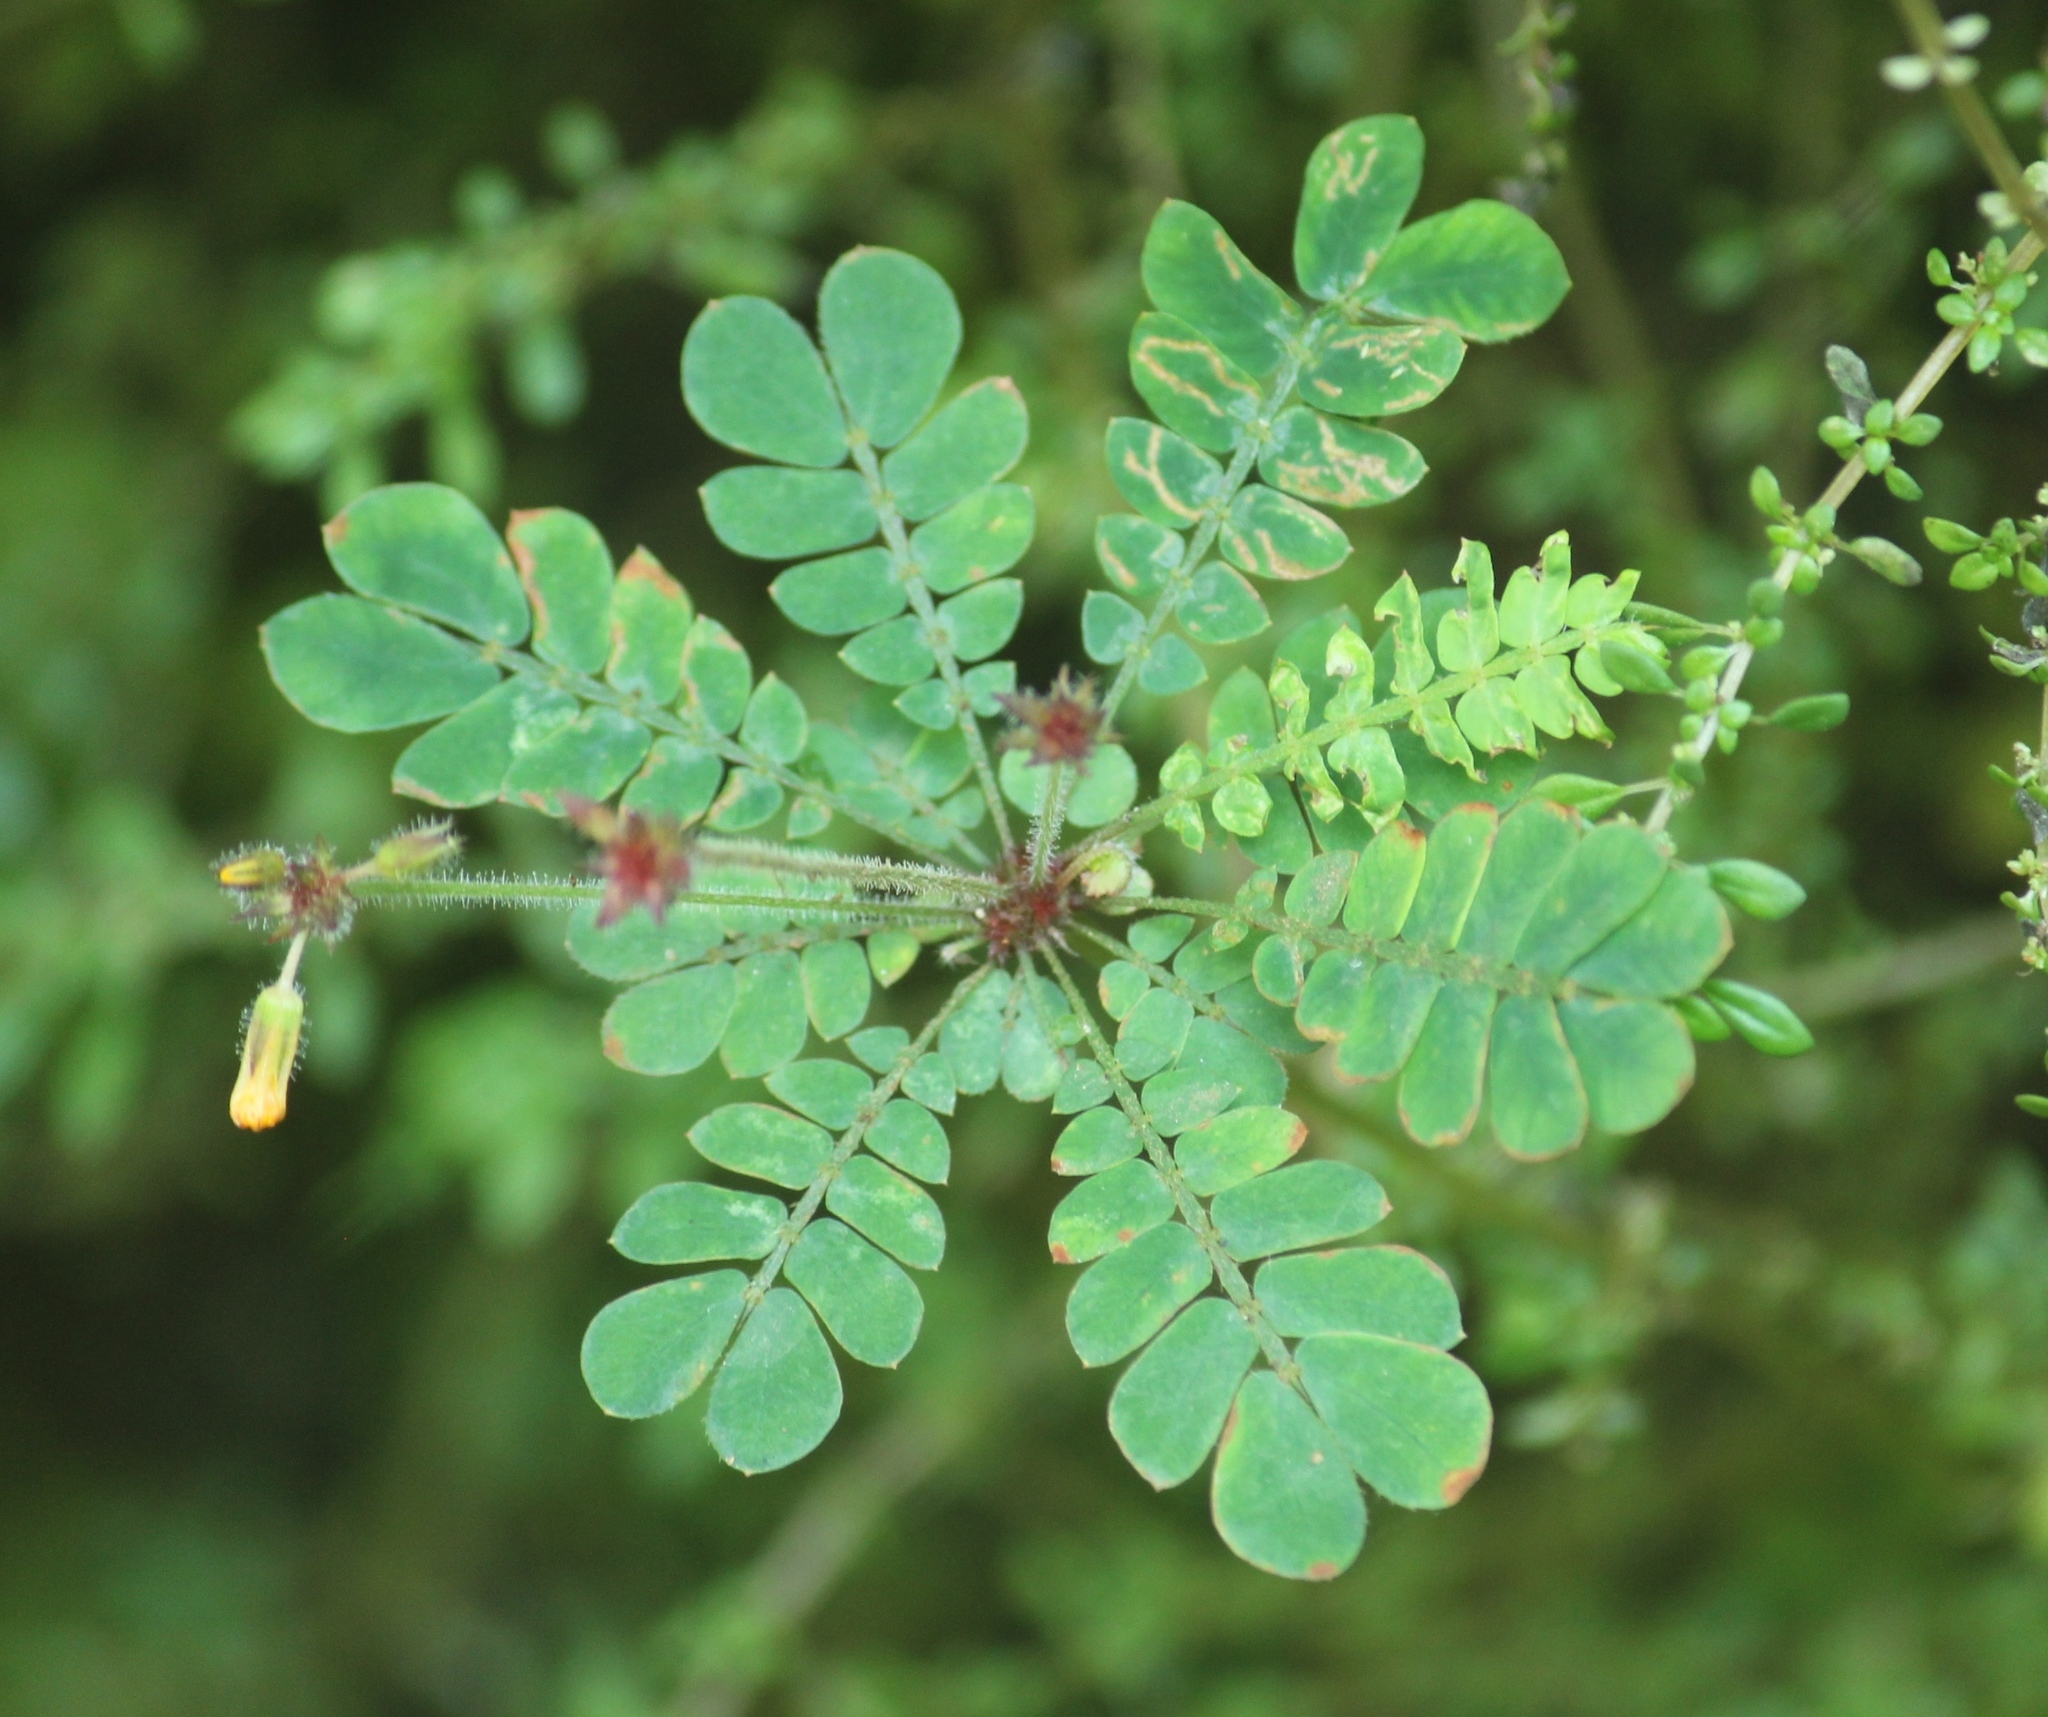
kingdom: Plantae
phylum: Tracheophyta
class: Magnoliopsida
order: Oxalidales
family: Oxalidaceae
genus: Biophytum
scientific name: Biophytum sensitivum
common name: Lifeplant
